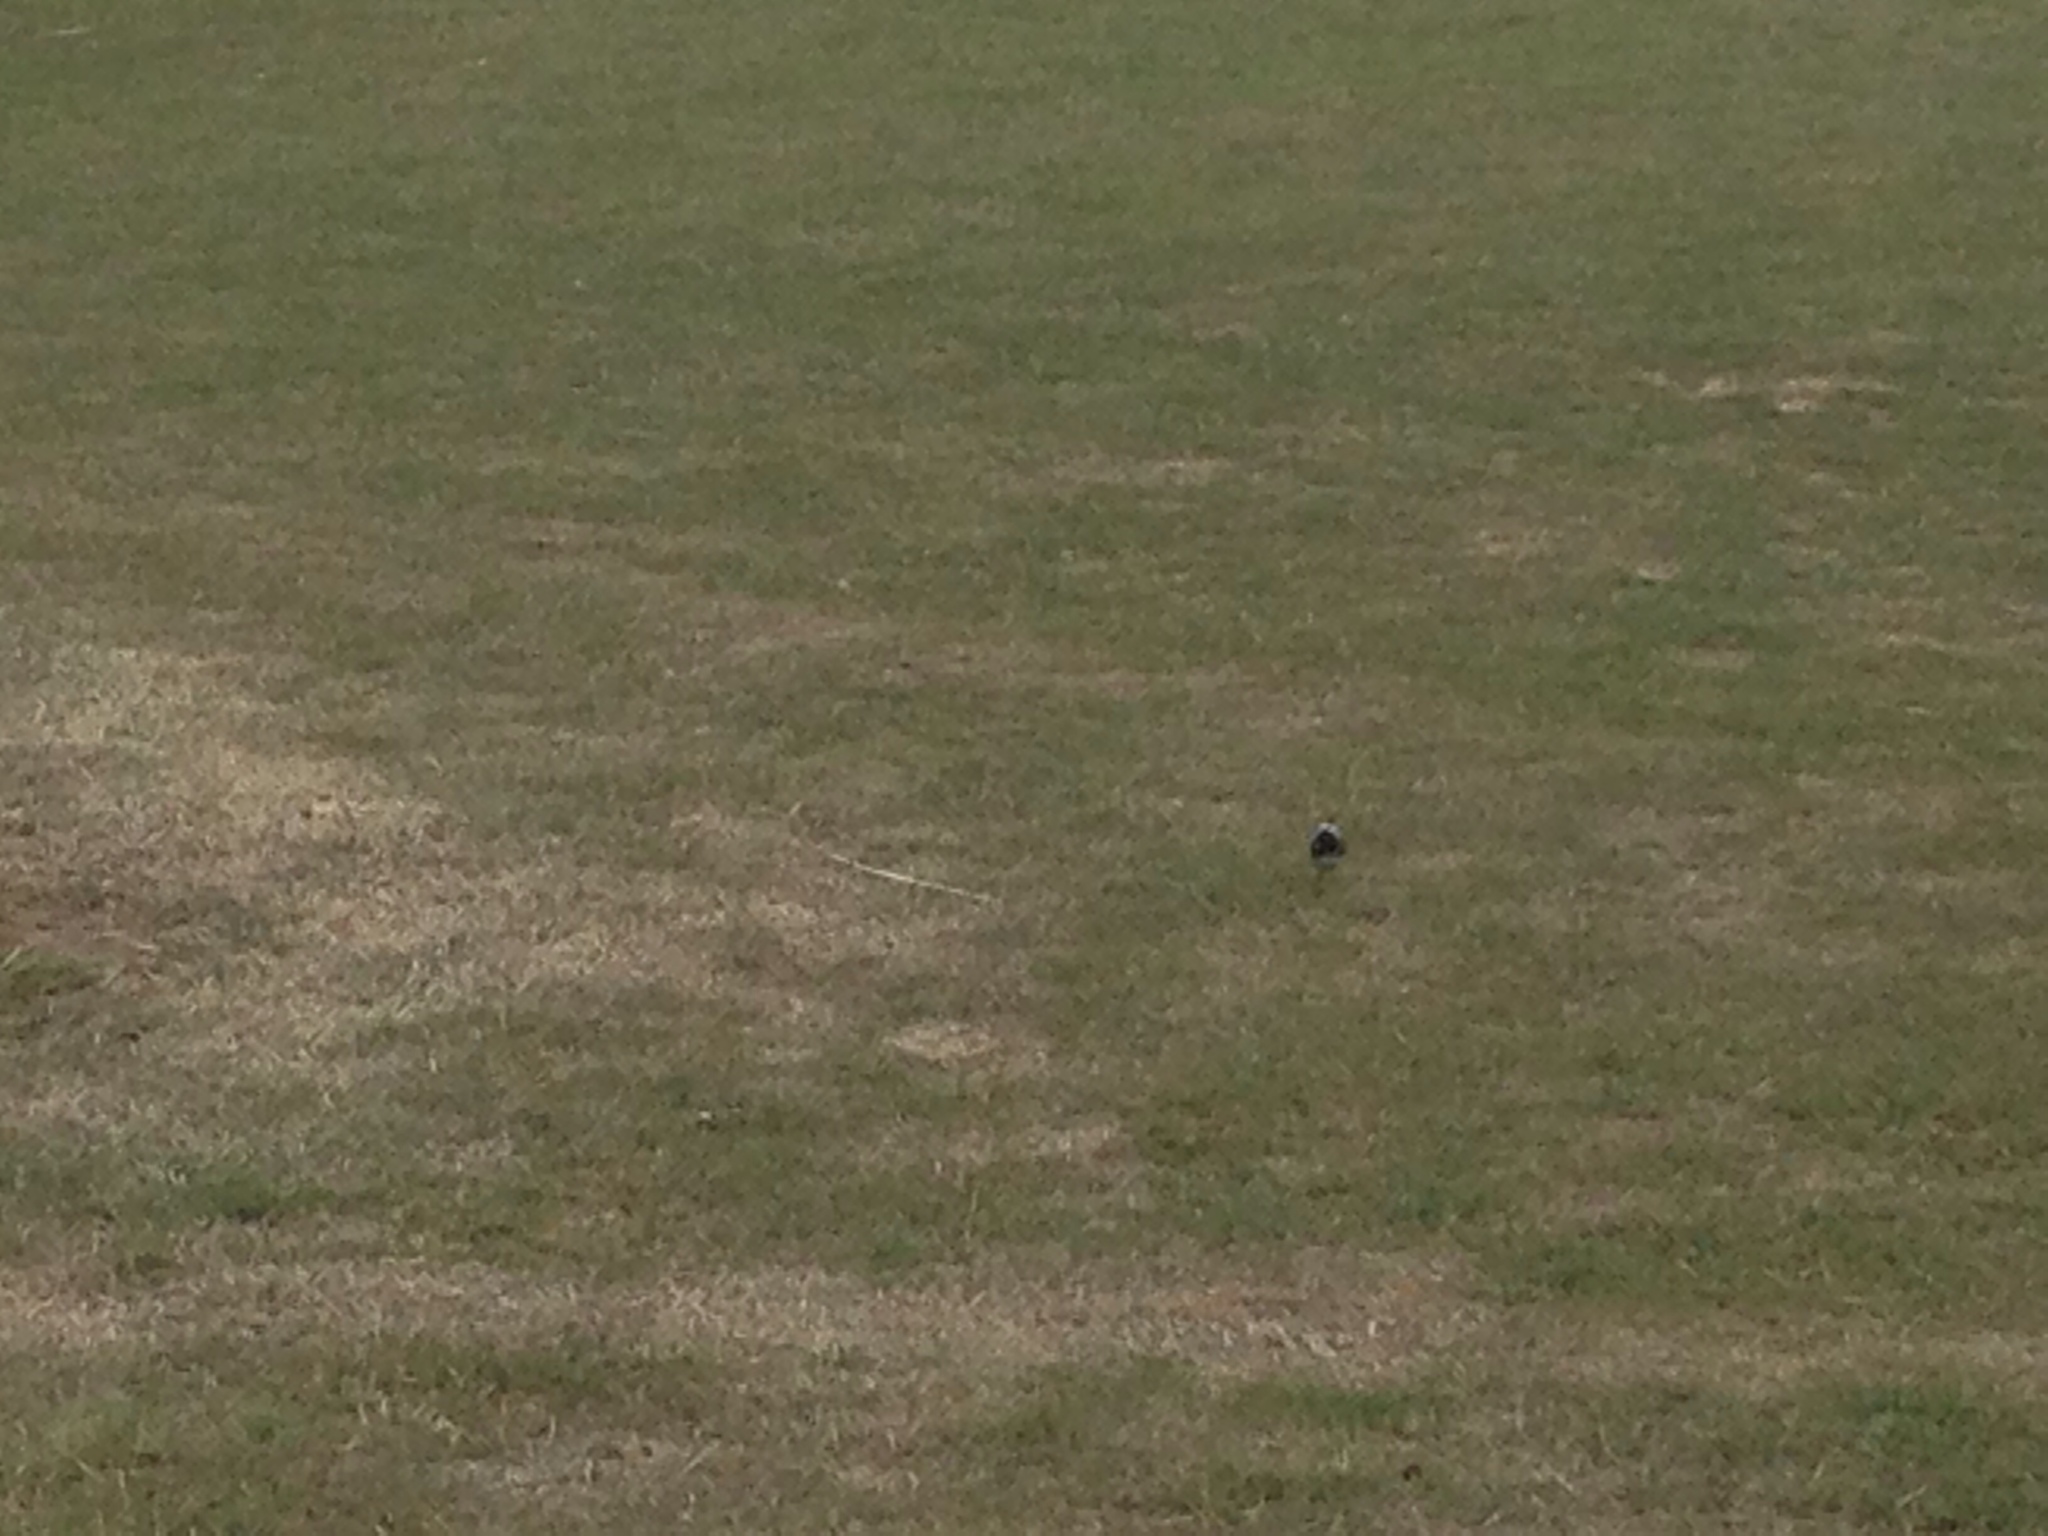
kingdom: Animalia
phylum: Chordata
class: Aves
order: Passeriformes
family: Motacillidae
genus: Motacilla
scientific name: Motacilla alba
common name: White wagtail
